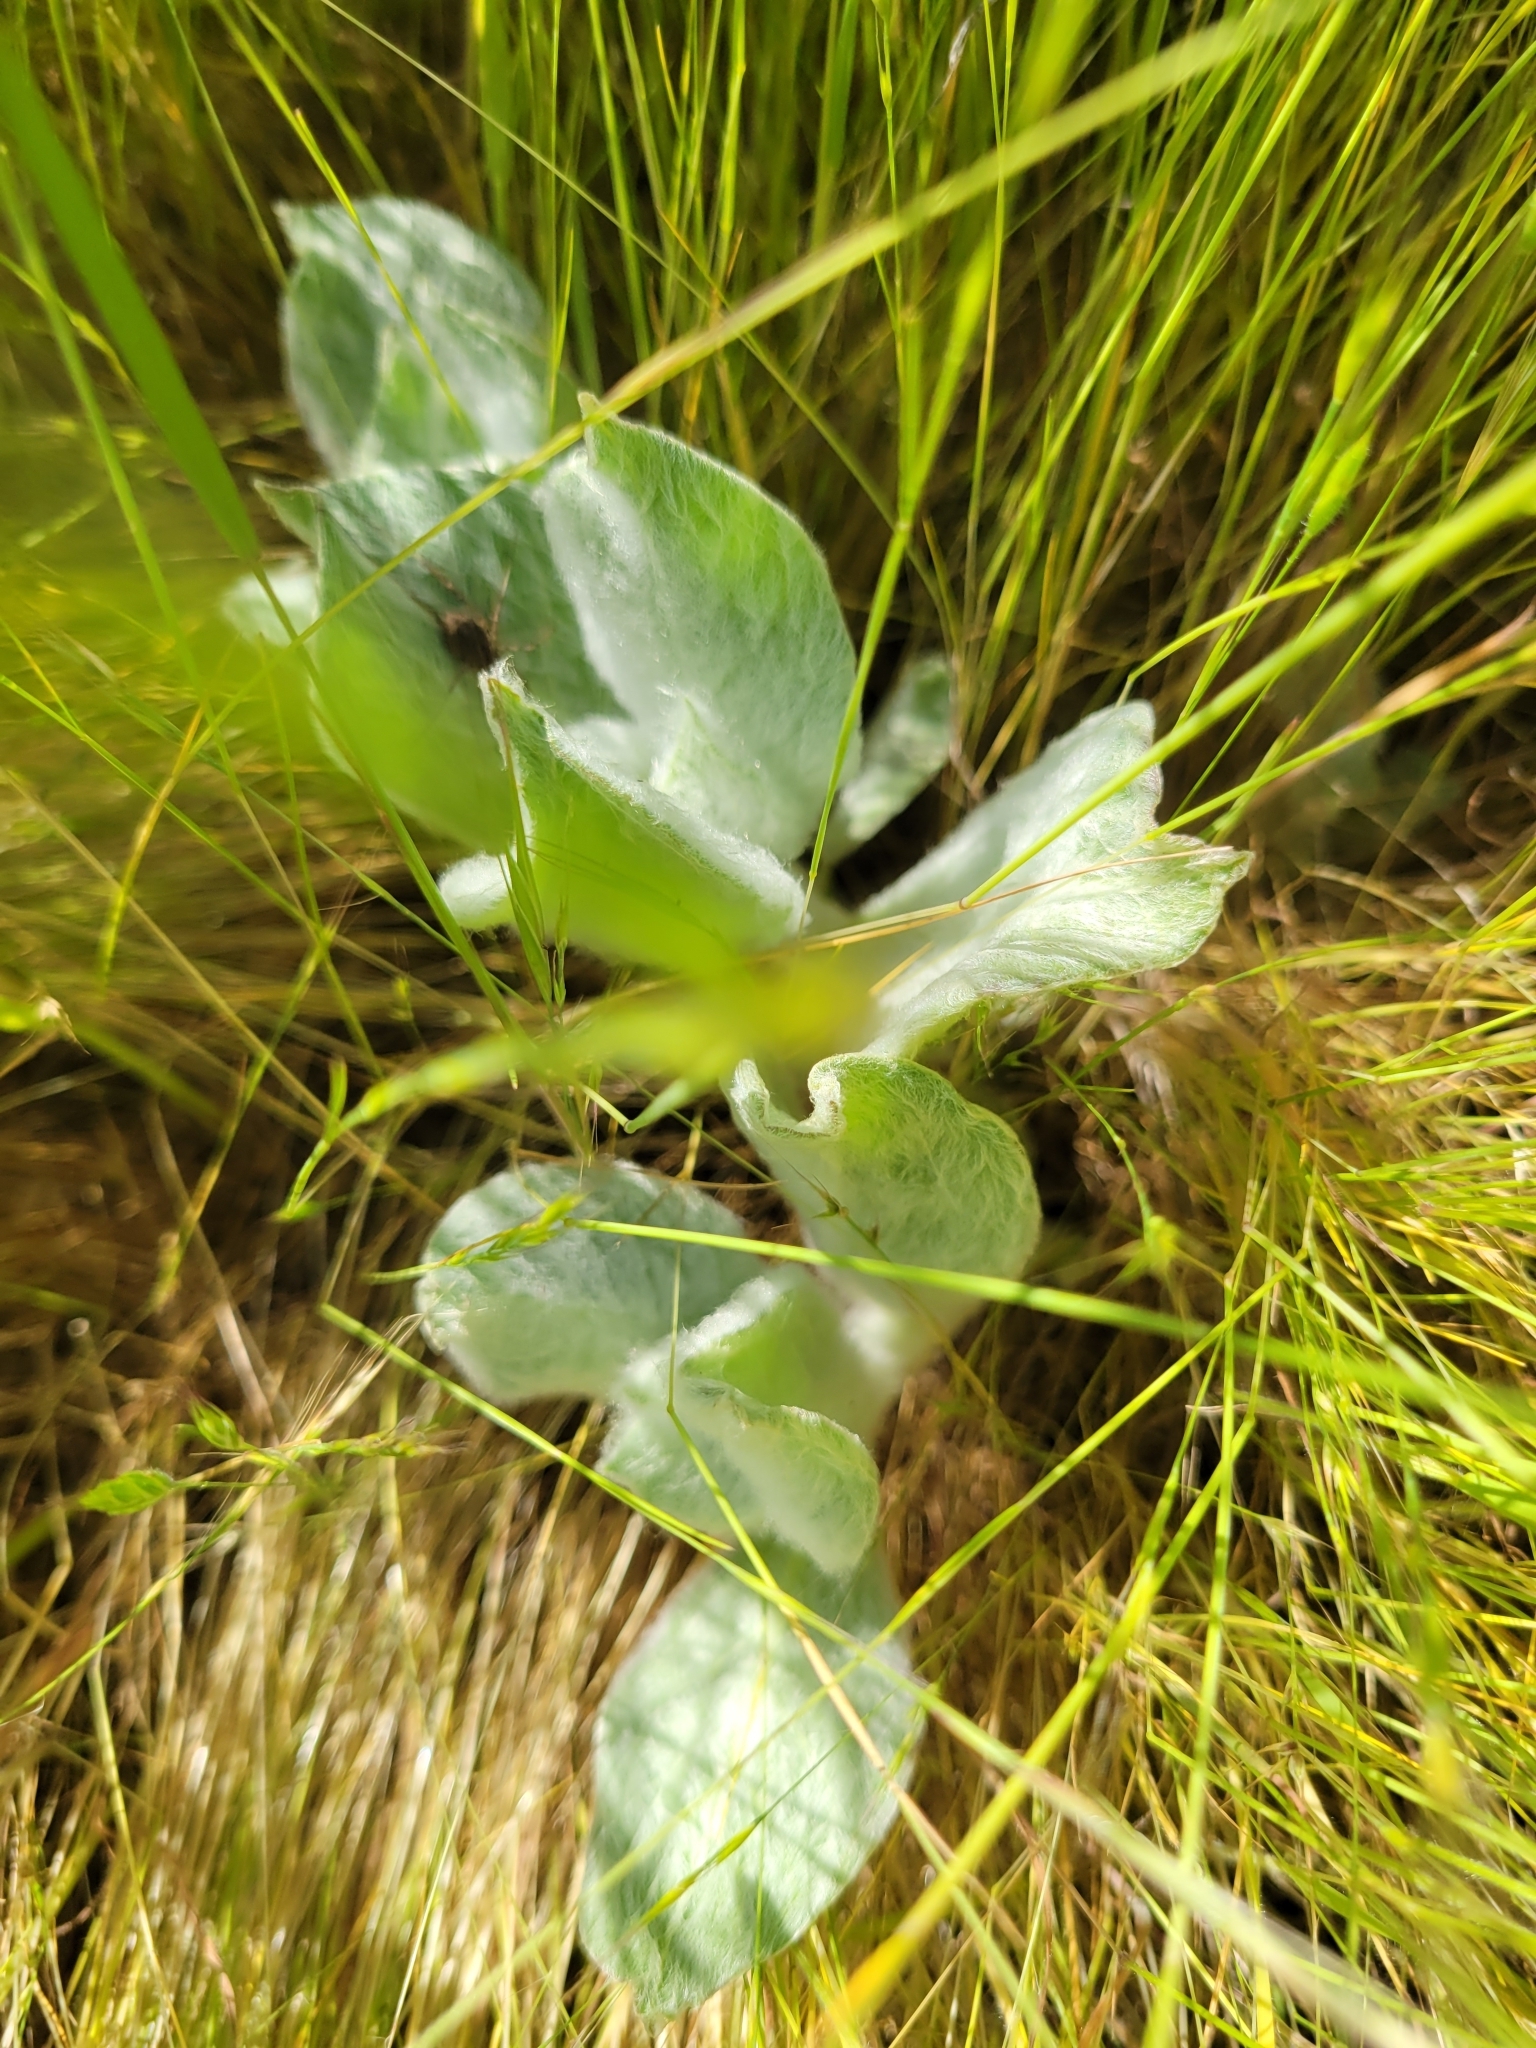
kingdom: Plantae
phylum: Tracheophyta
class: Magnoliopsida
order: Gentianales
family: Apocynaceae
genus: Asclepias
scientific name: Asclepias californica
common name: California milkweed
